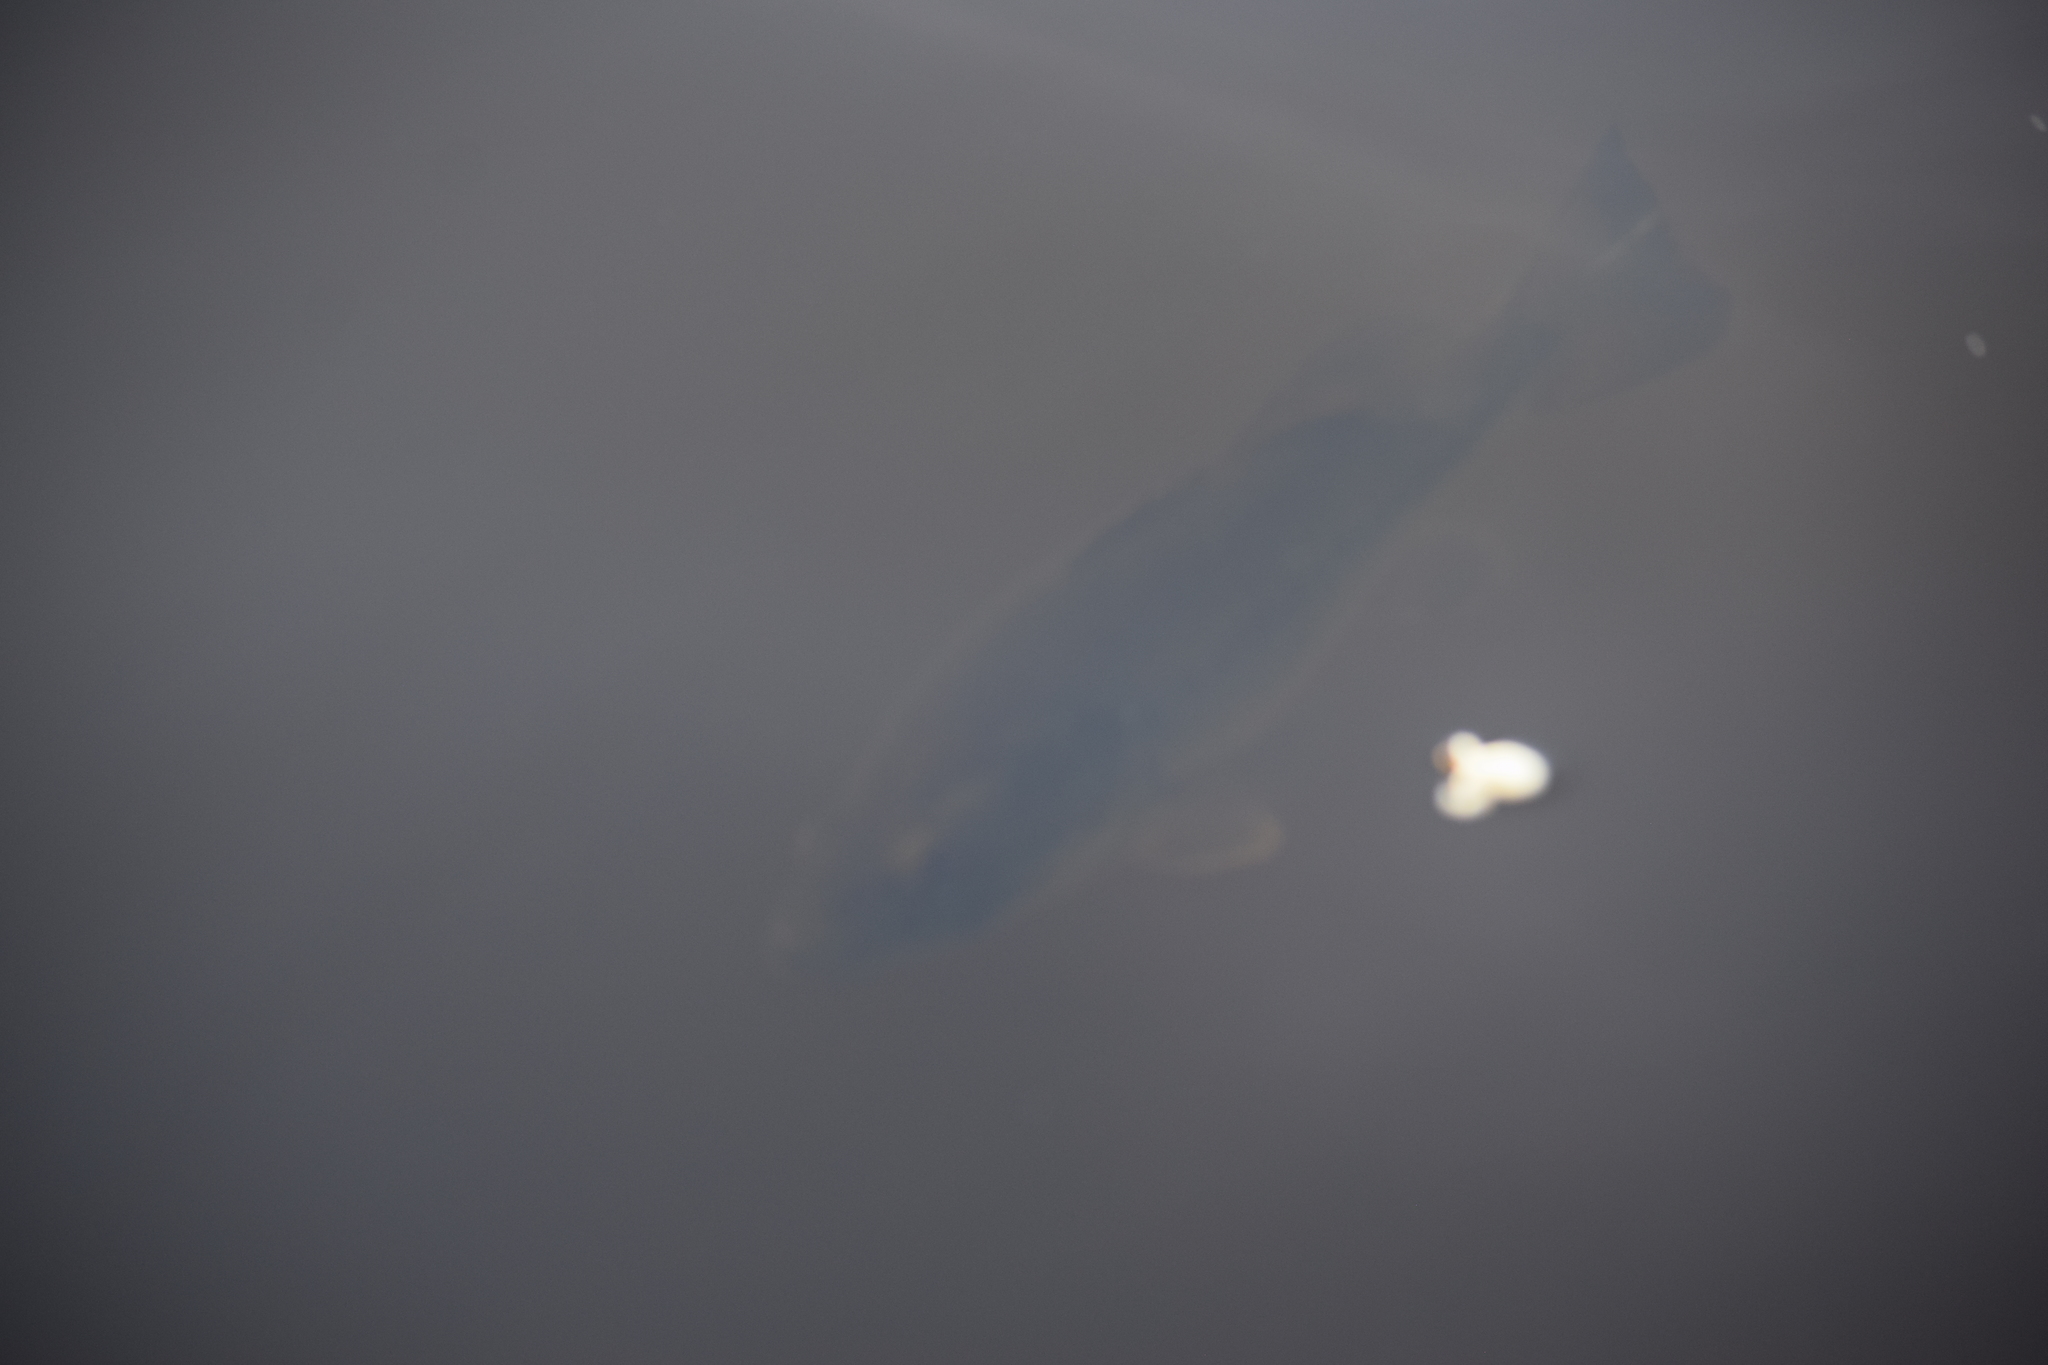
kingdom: Animalia
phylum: Chordata
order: Perciformes
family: Centrarchidae
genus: Micropterus
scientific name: Micropterus
